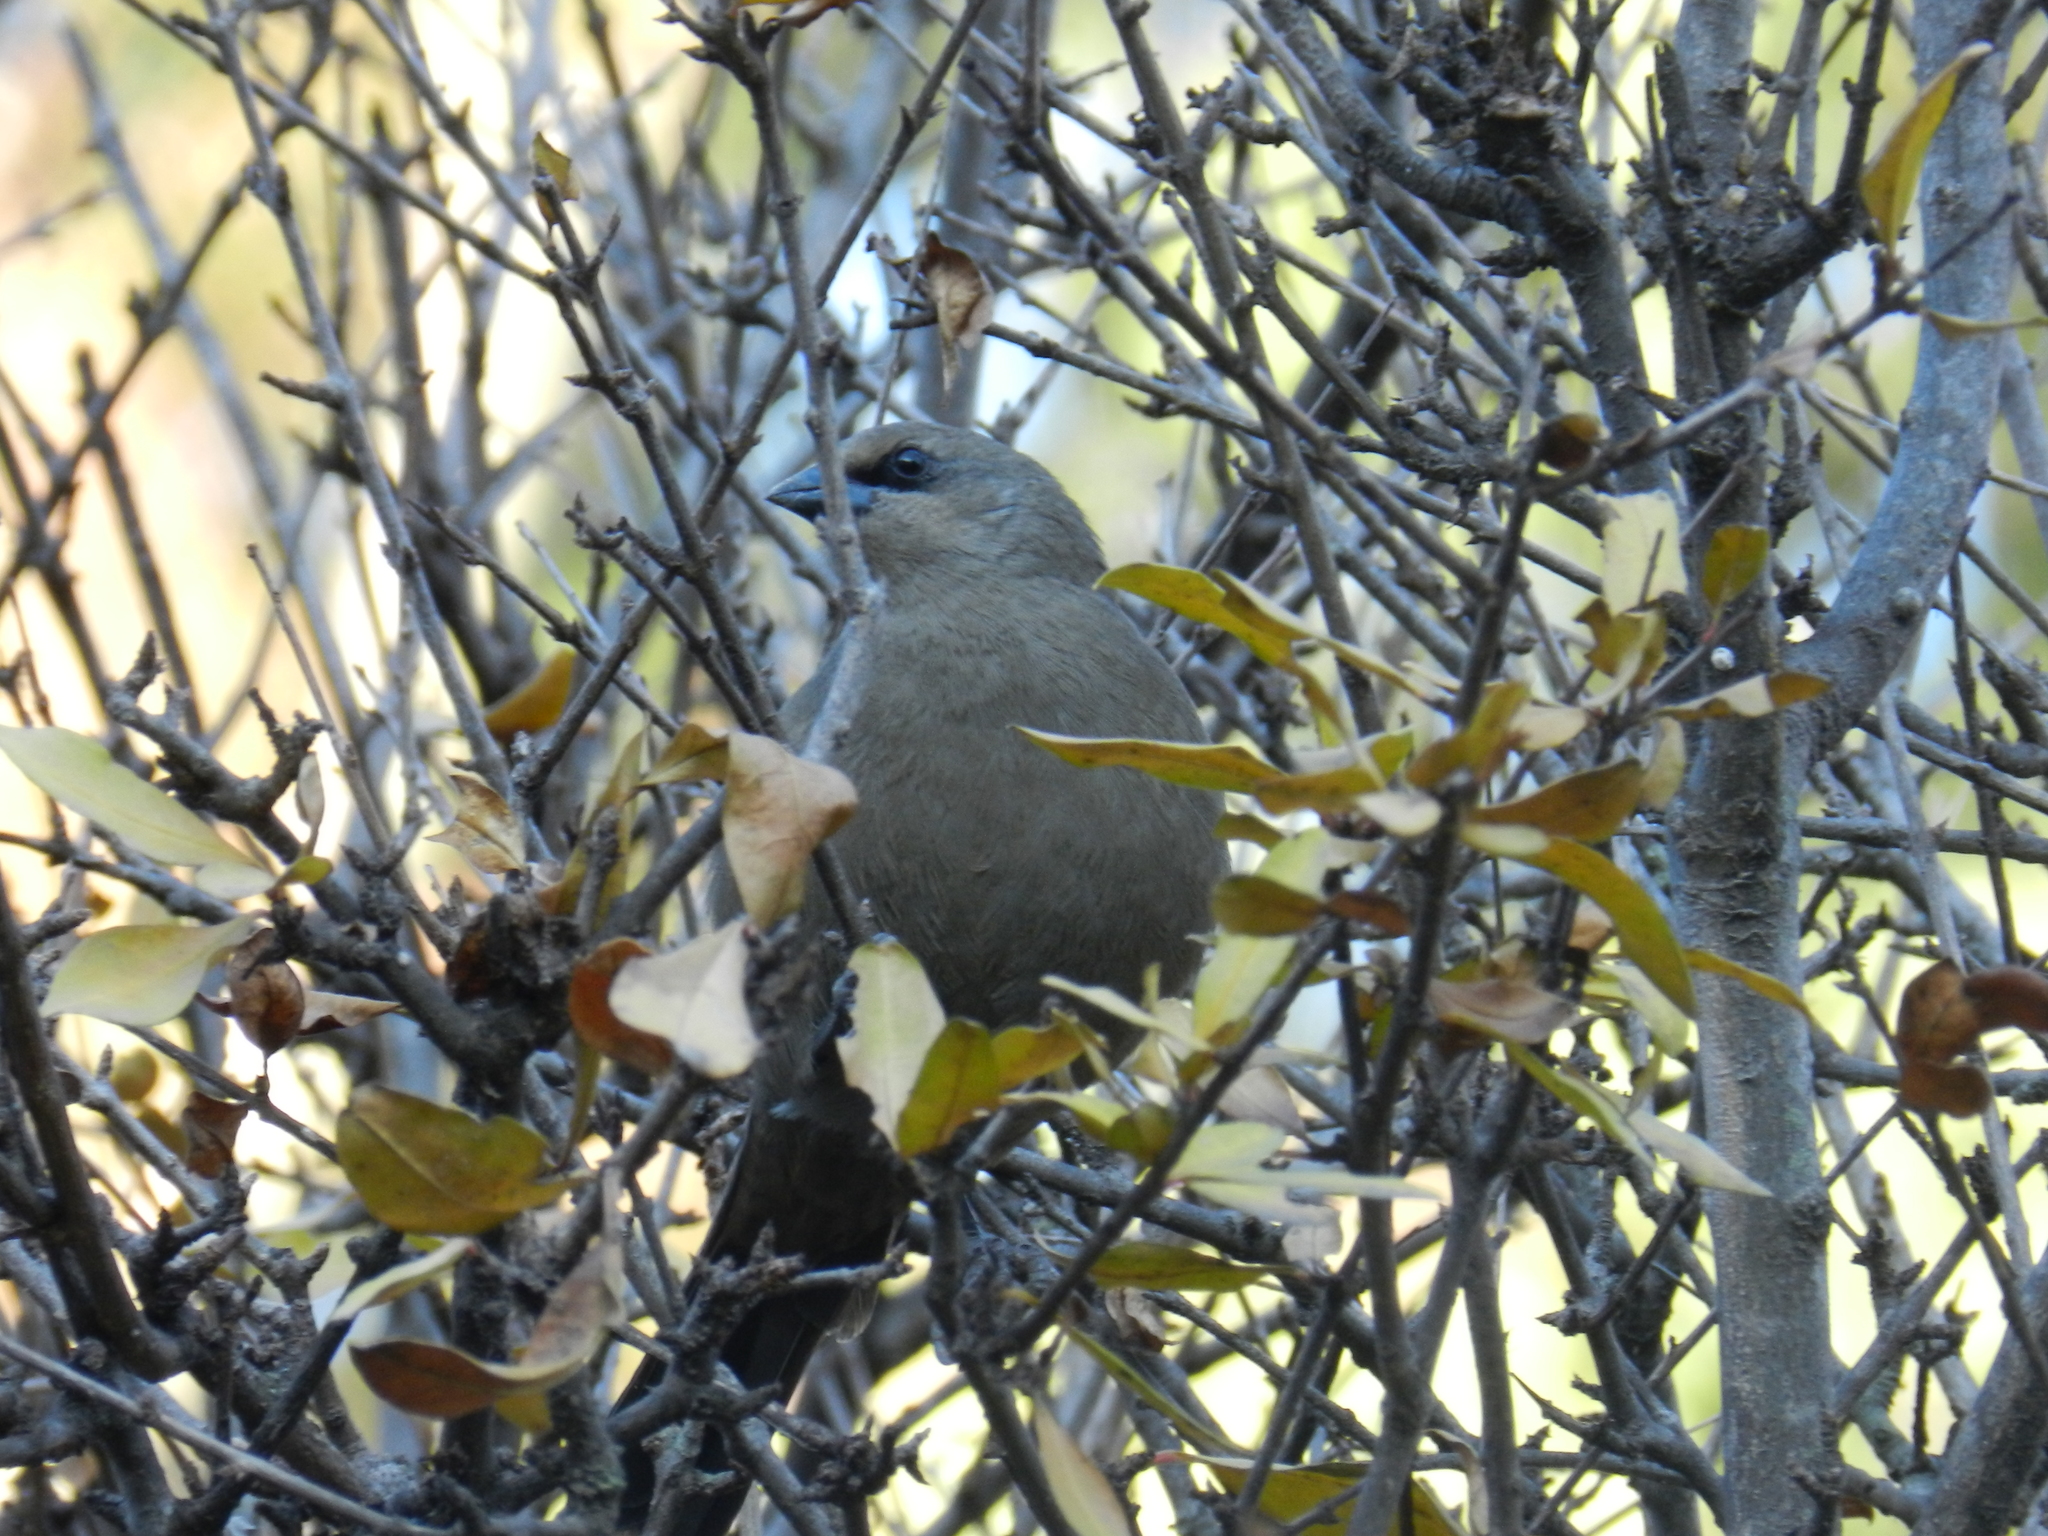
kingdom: Animalia
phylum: Chordata
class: Aves
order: Passeriformes
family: Icteridae
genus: Agelaioides
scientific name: Agelaioides badius
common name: Baywing
